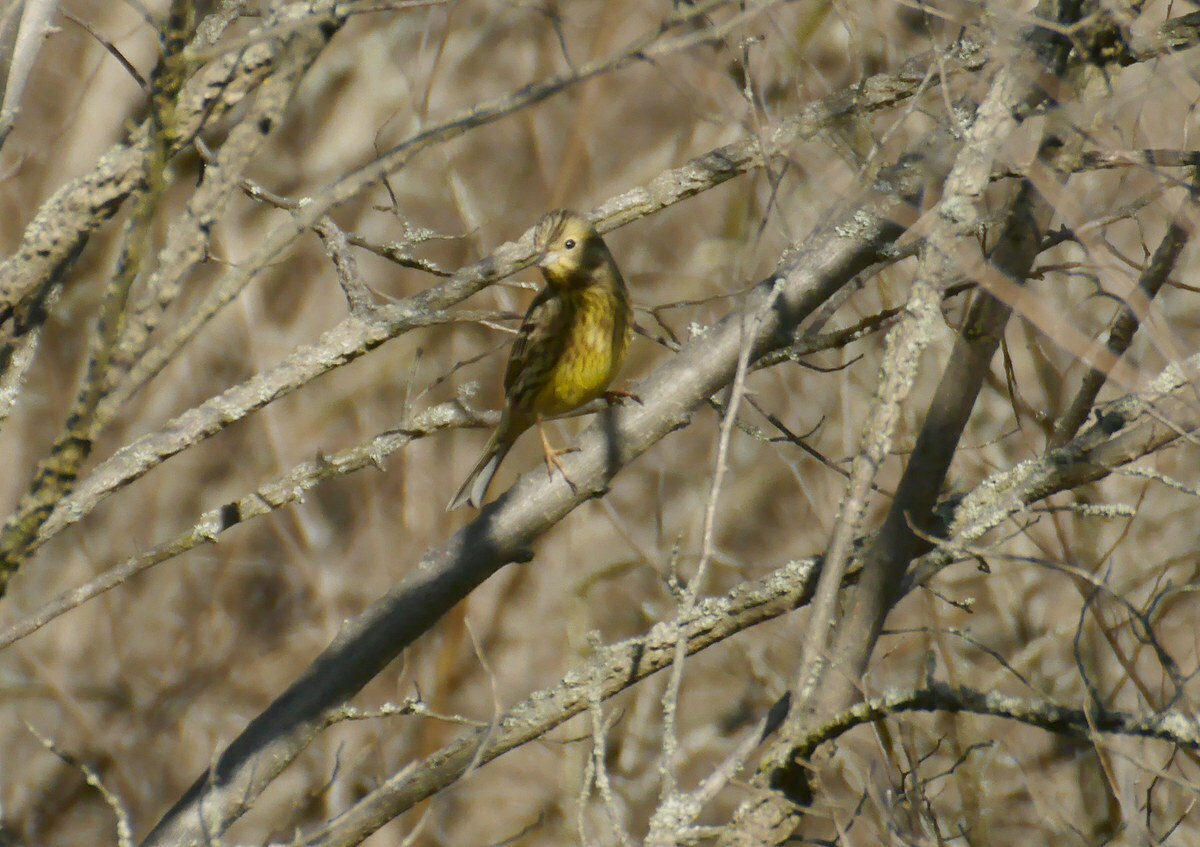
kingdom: Animalia
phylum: Chordata
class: Aves
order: Passeriformes
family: Emberizidae
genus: Emberiza
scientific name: Emberiza citrinella
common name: Yellowhammer
